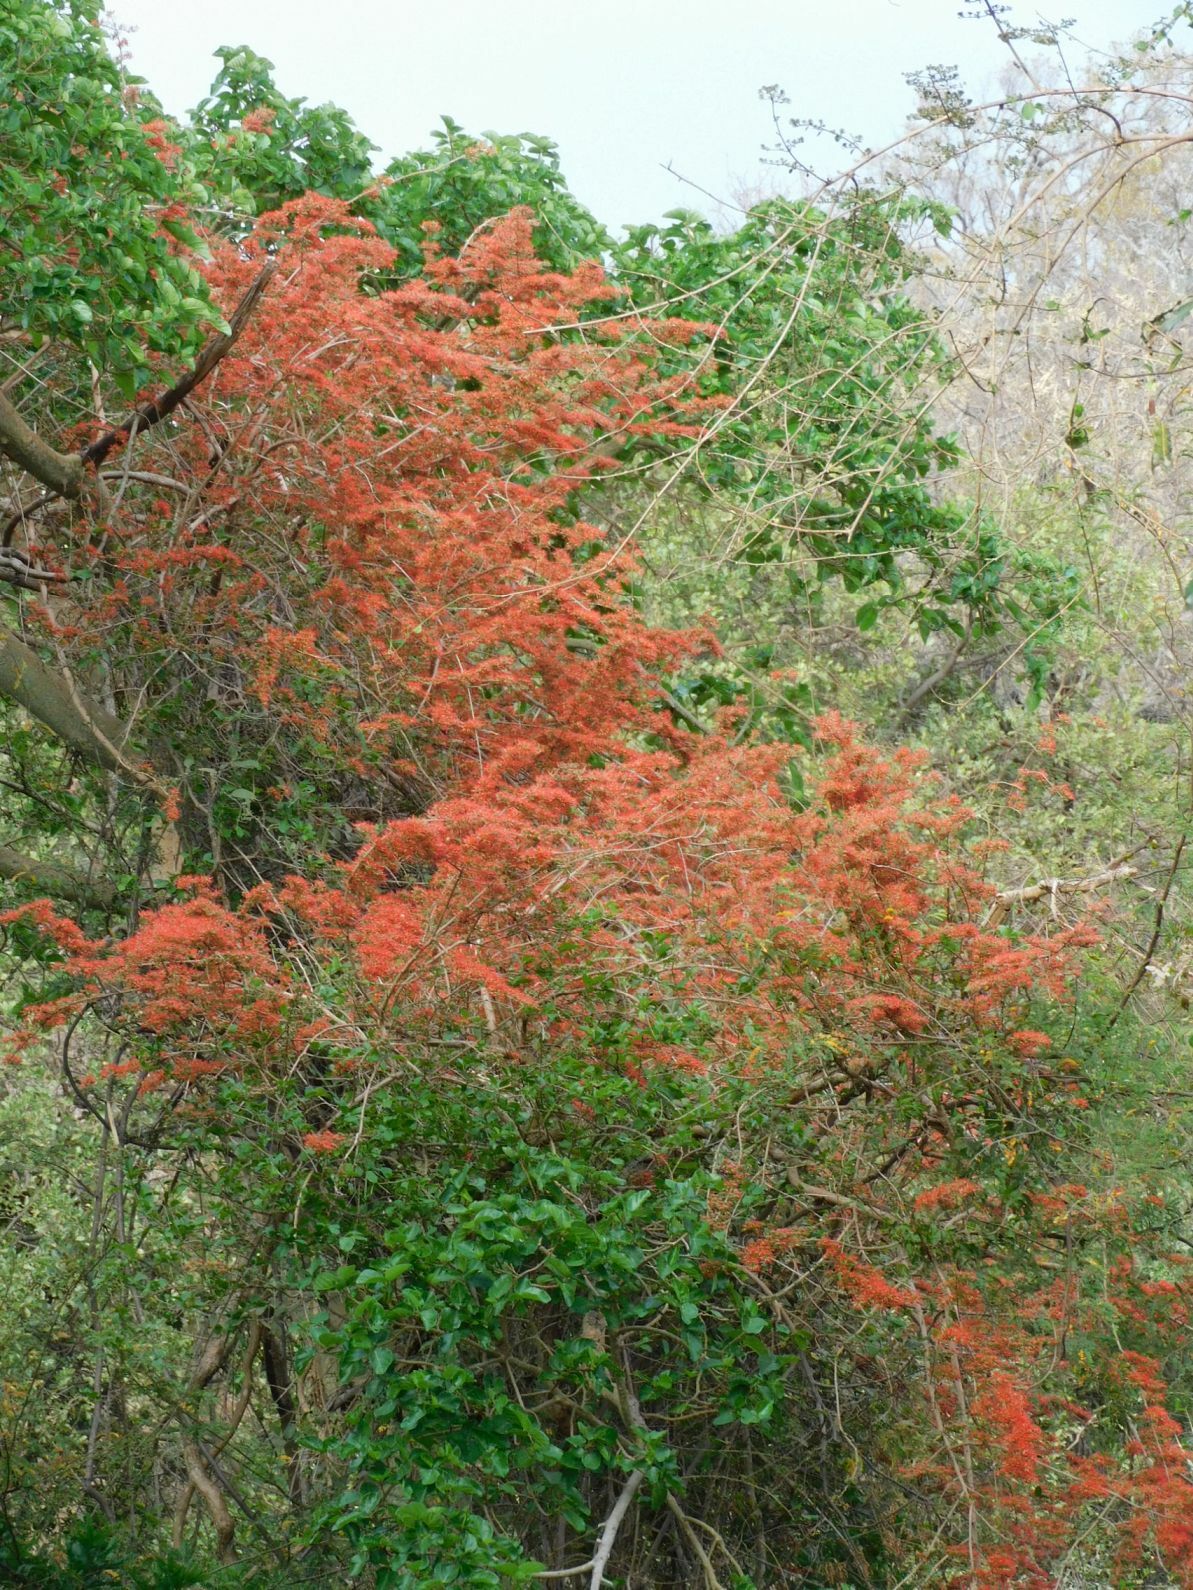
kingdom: Plantae
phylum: Tracheophyta
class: Magnoliopsida
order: Myrtales
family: Combretaceae
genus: Combretum
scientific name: Combretum microphyllum
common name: Burningbush
